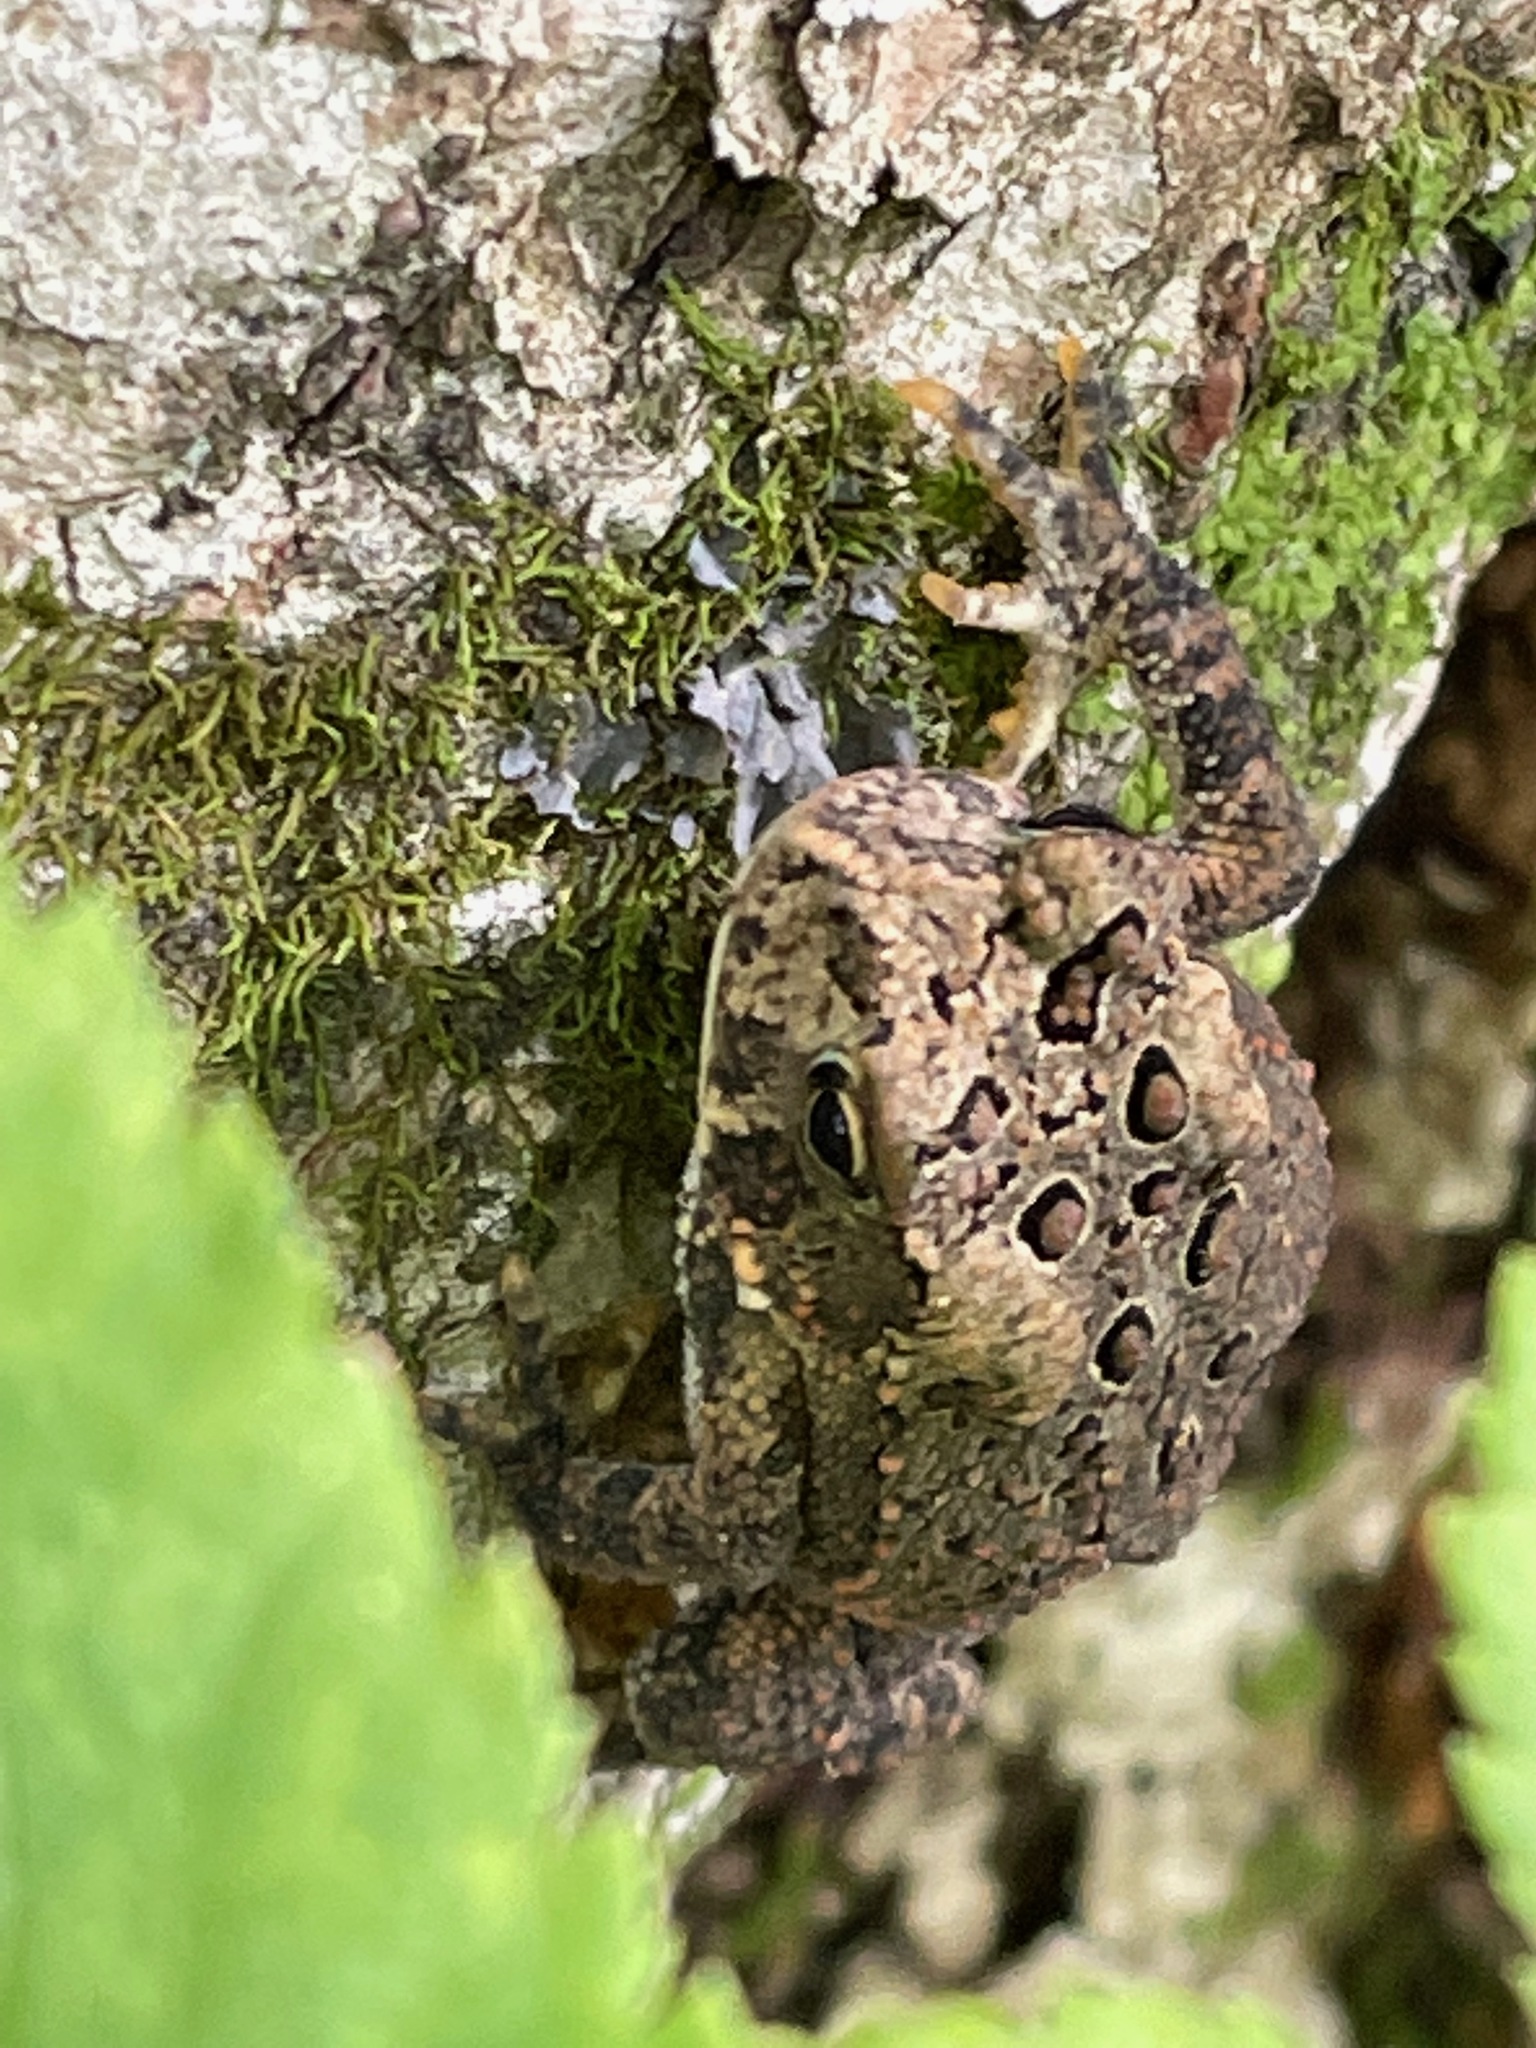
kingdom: Animalia
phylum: Chordata
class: Amphibia
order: Anura
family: Bufonidae
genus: Anaxyrus
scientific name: Anaxyrus americanus
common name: American toad
